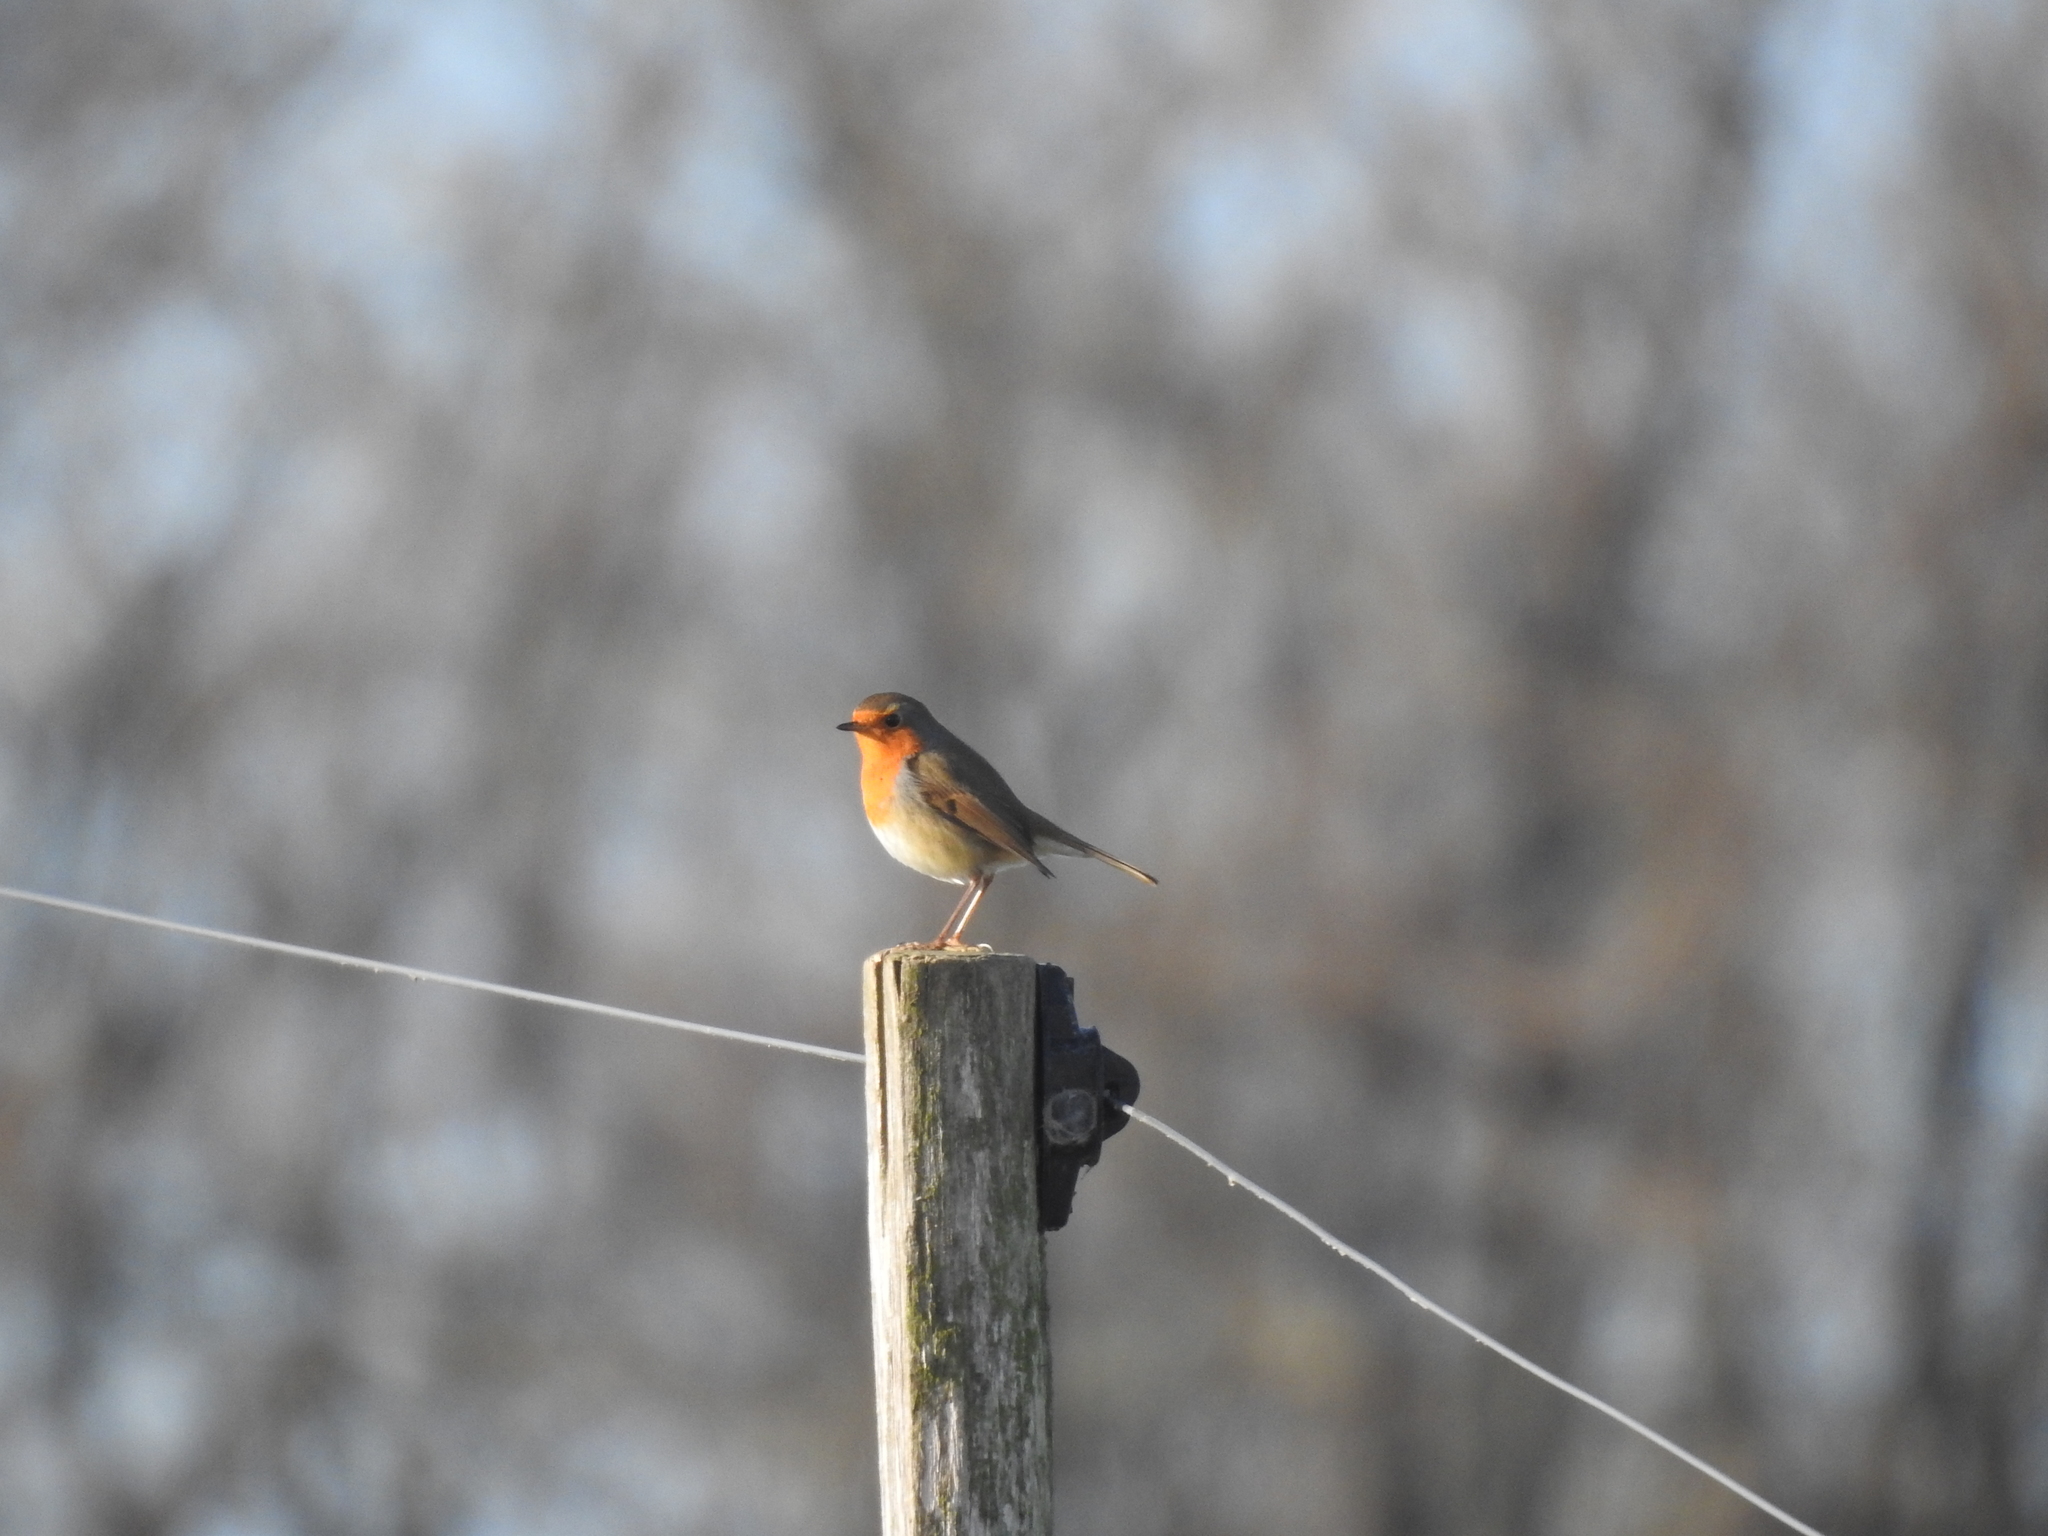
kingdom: Animalia
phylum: Chordata
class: Aves
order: Passeriformes
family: Muscicapidae
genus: Erithacus
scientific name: Erithacus rubecula
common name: European robin
